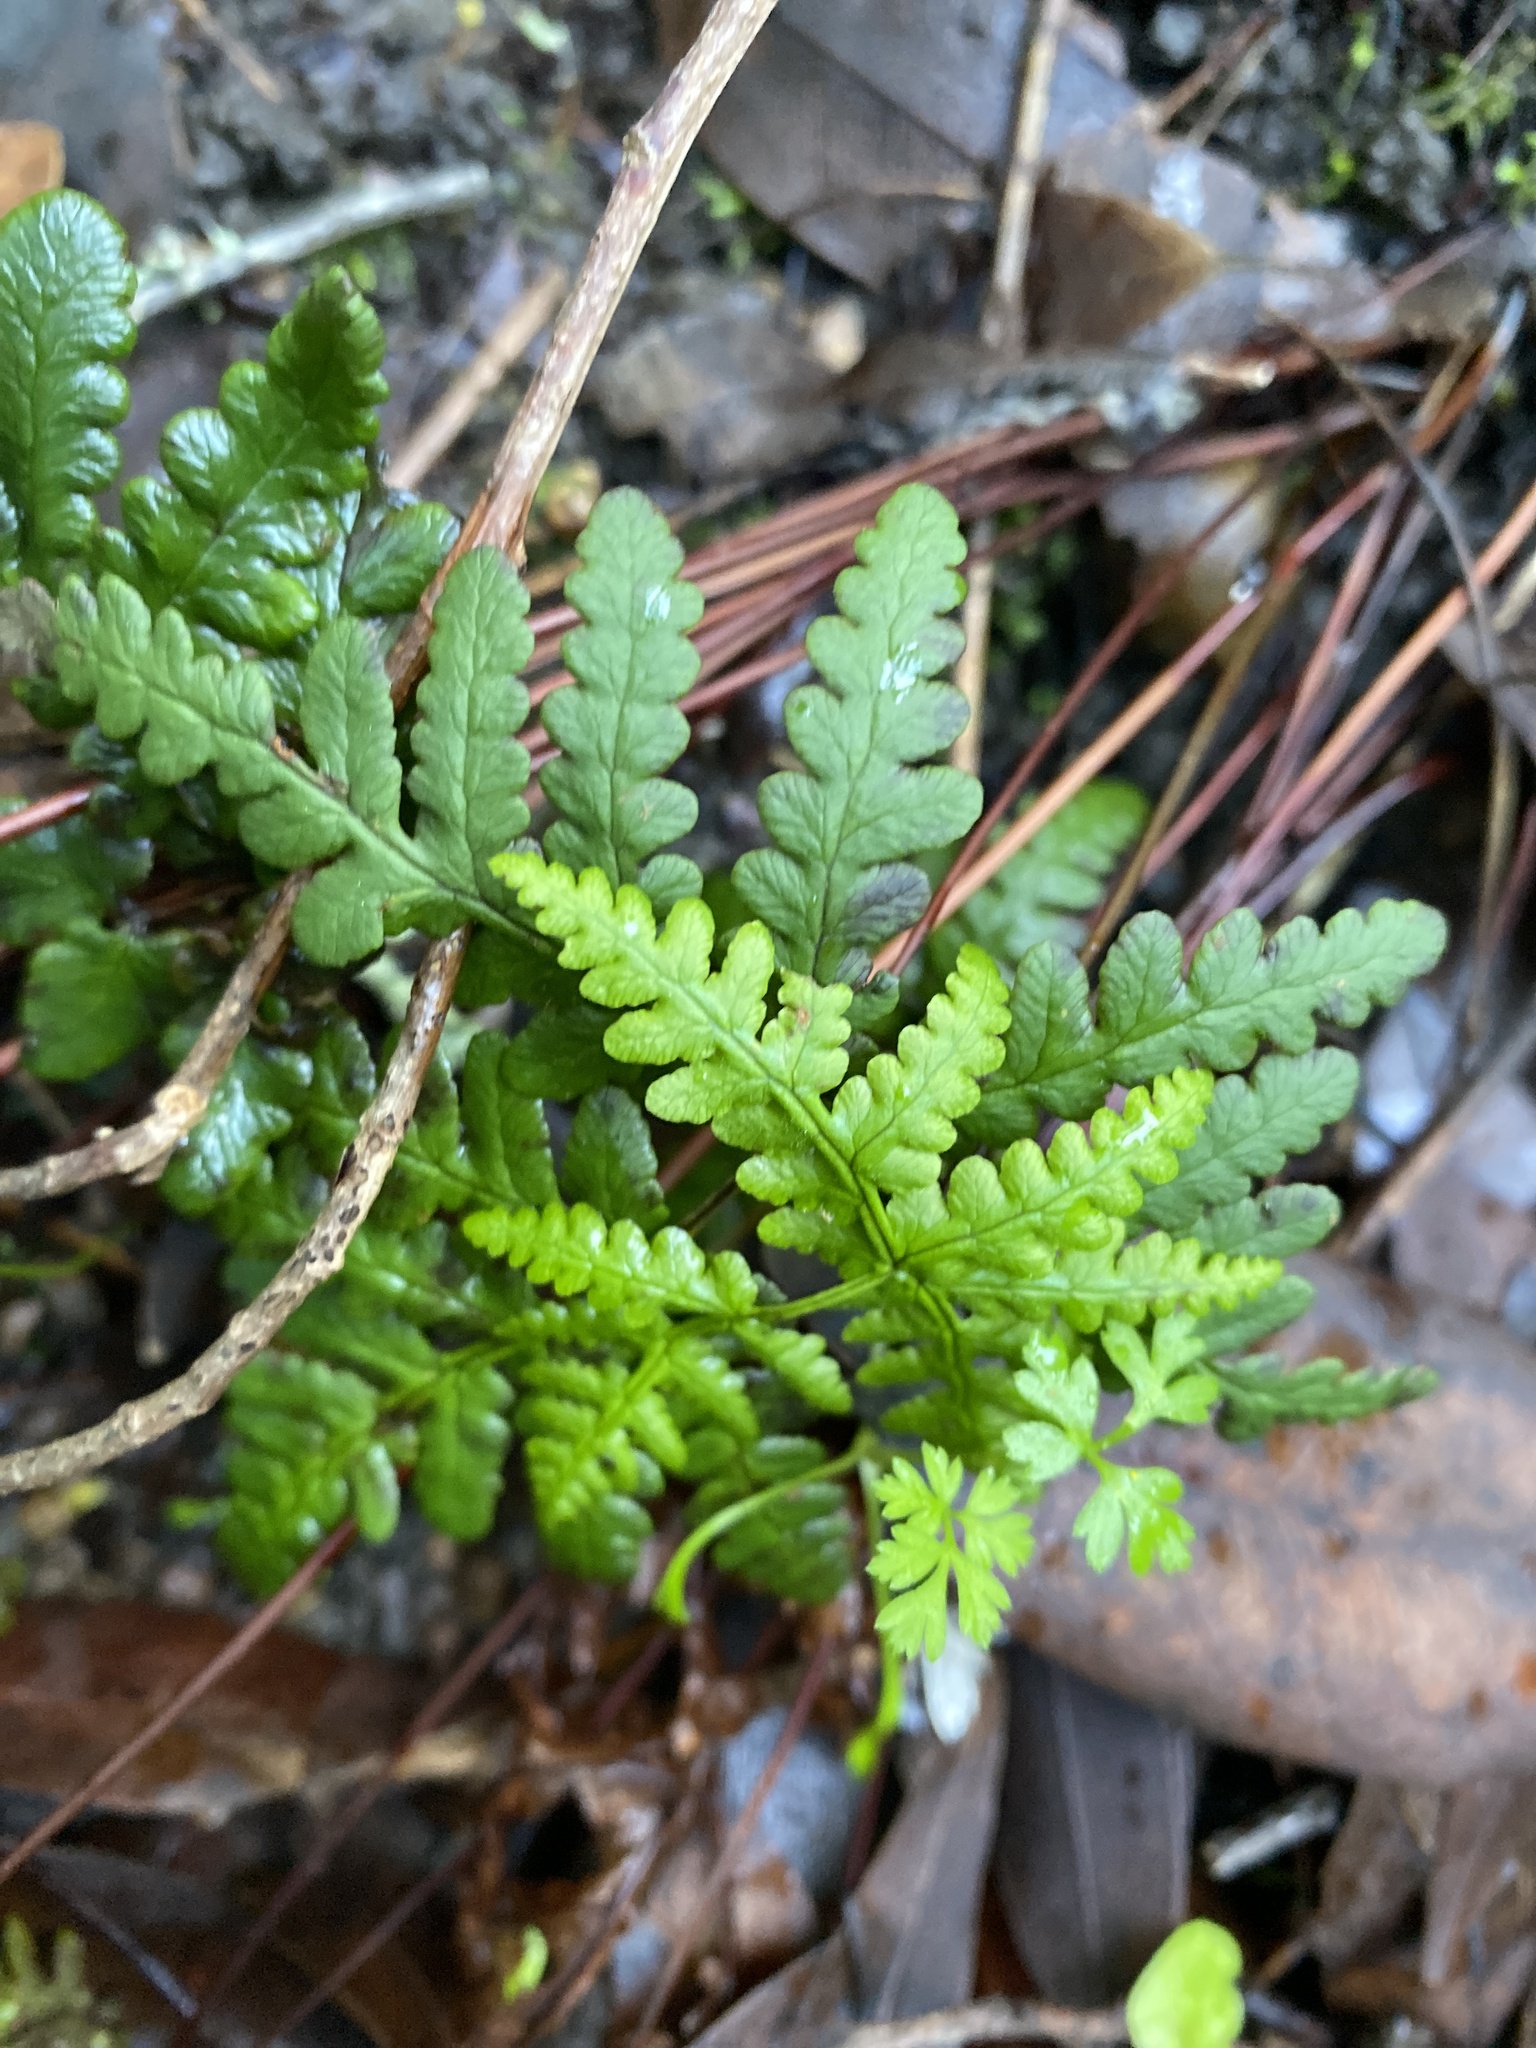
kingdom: Plantae
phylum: Tracheophyta
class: Polypodiopsida
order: Polypodiales
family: Pteridaceae
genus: Pentagramma
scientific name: Pentagramma triangularis
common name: Gold fern
